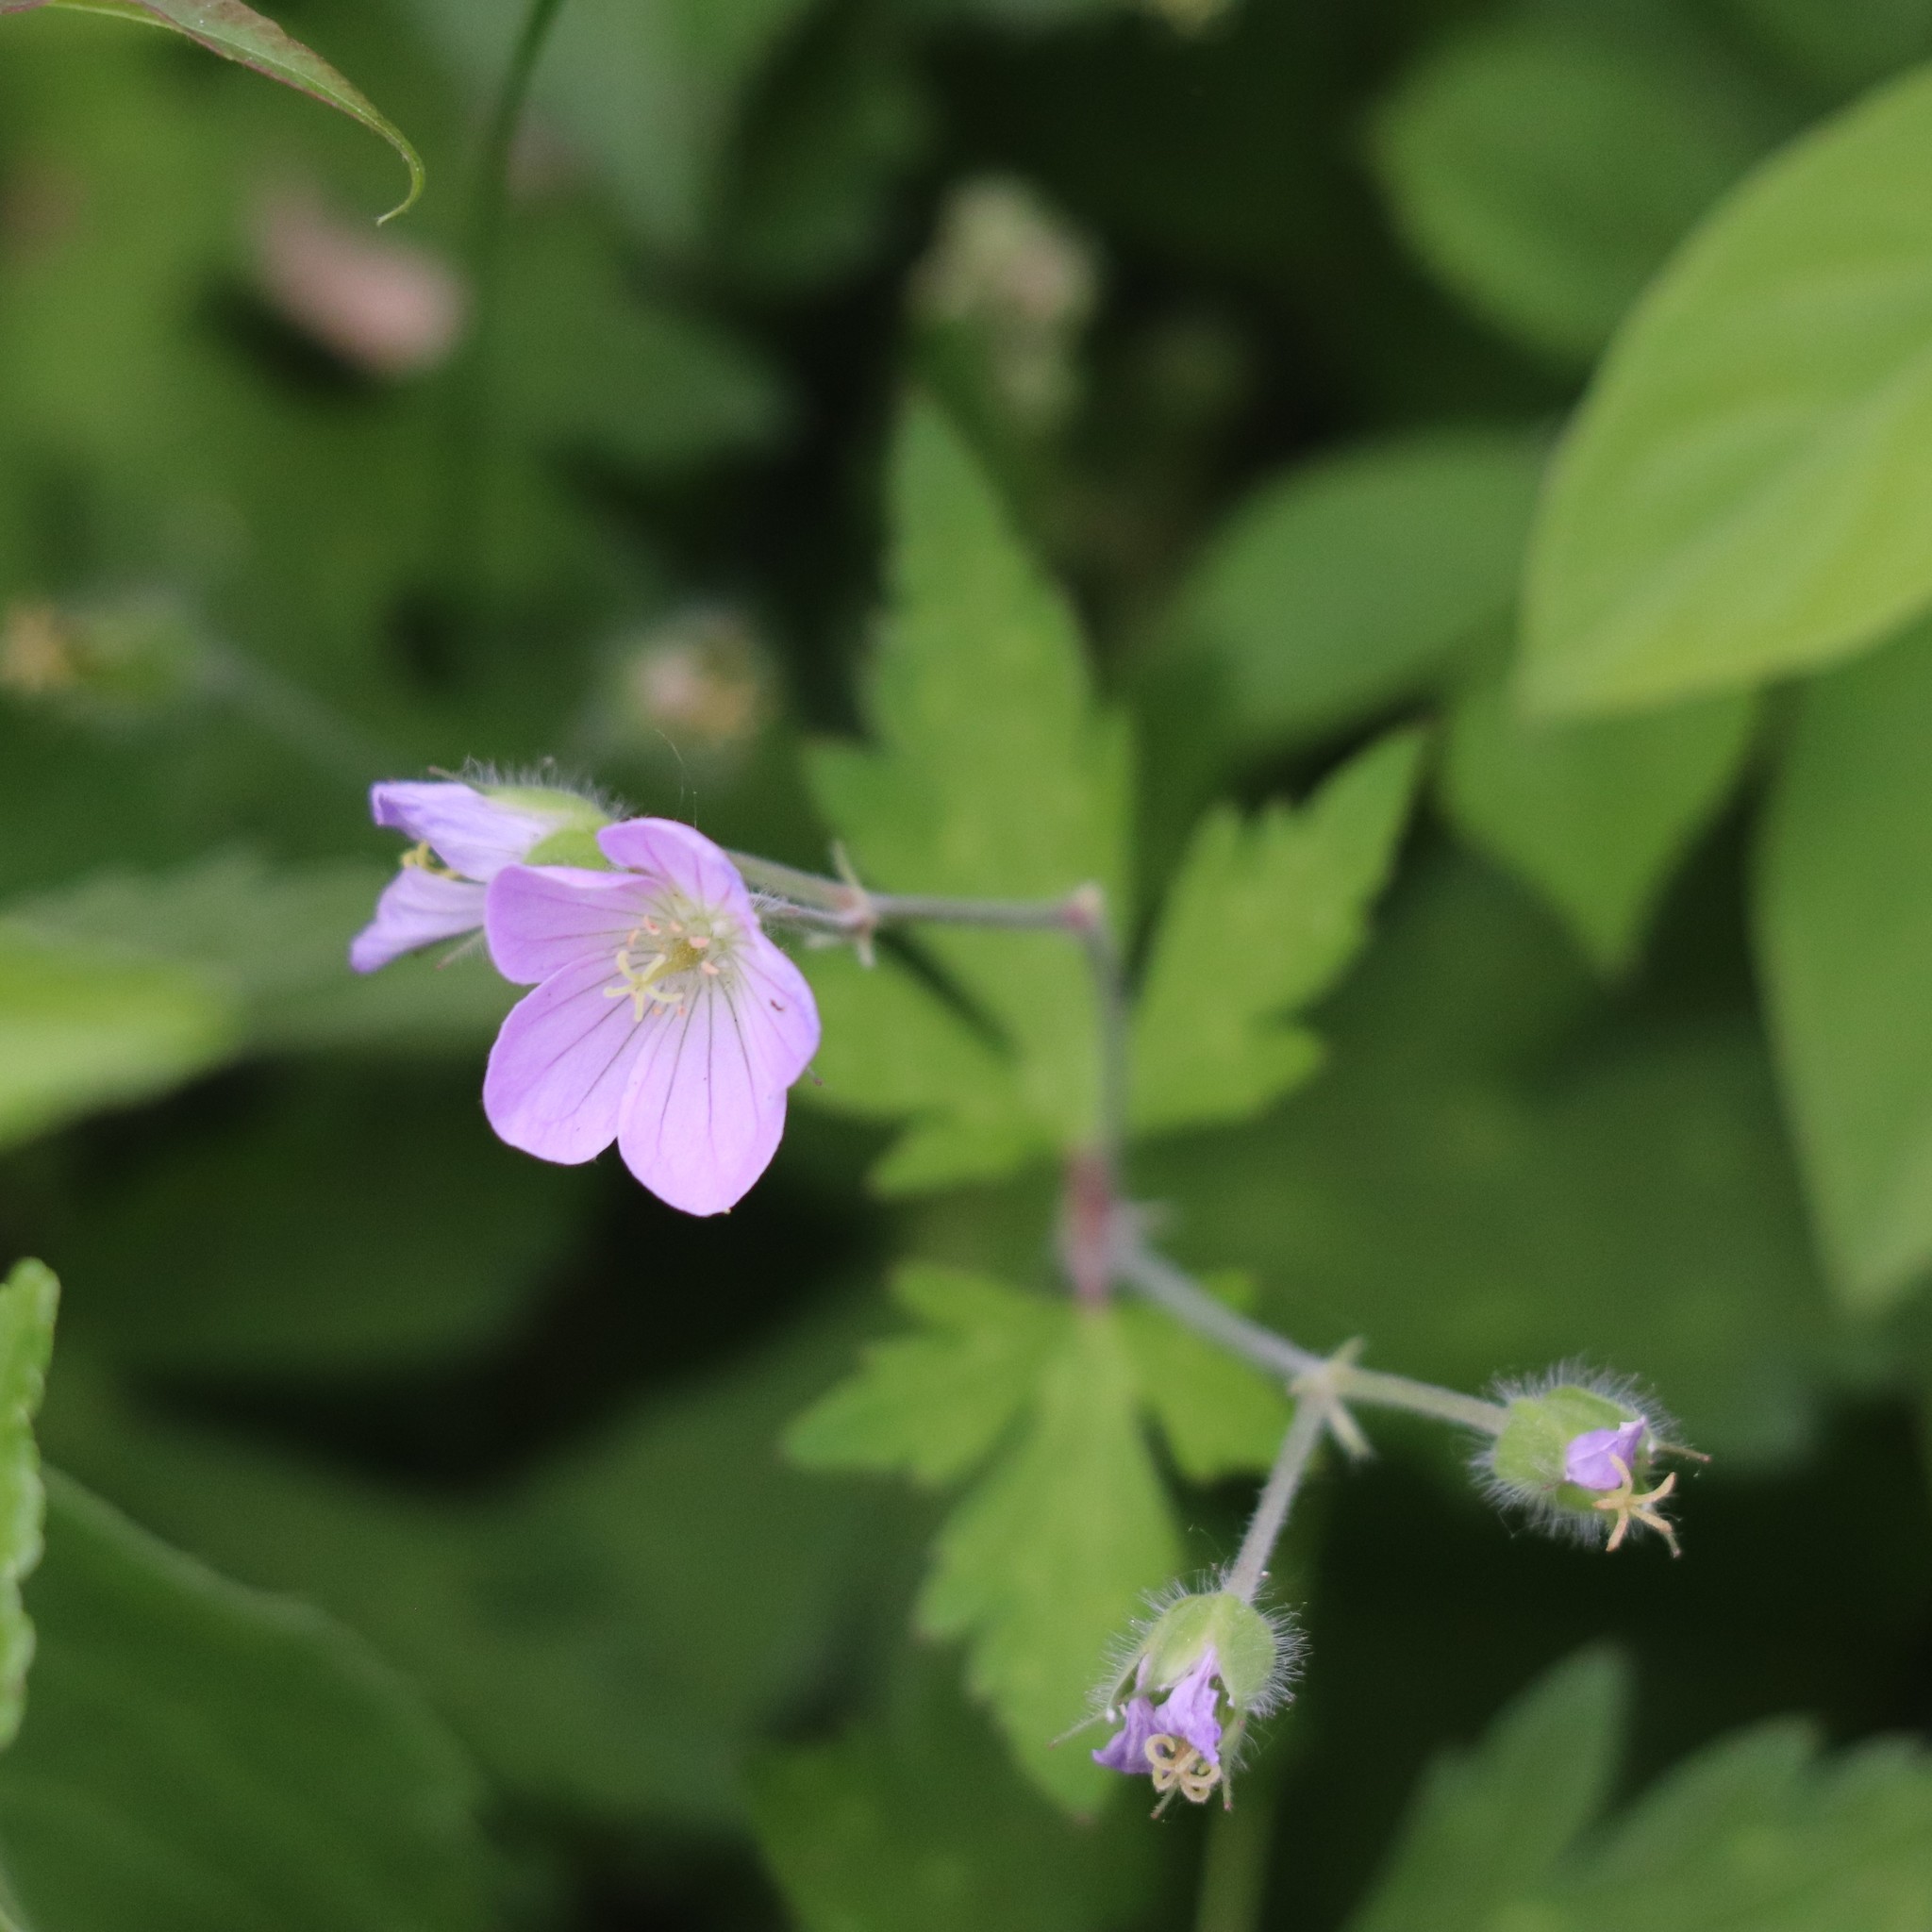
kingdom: Plantae
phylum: Tracheophyta
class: Magnoliopsida
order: Geraniales
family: Geraniaceae
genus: Geranium
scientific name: Geranium maculatum
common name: Spotted geranium
